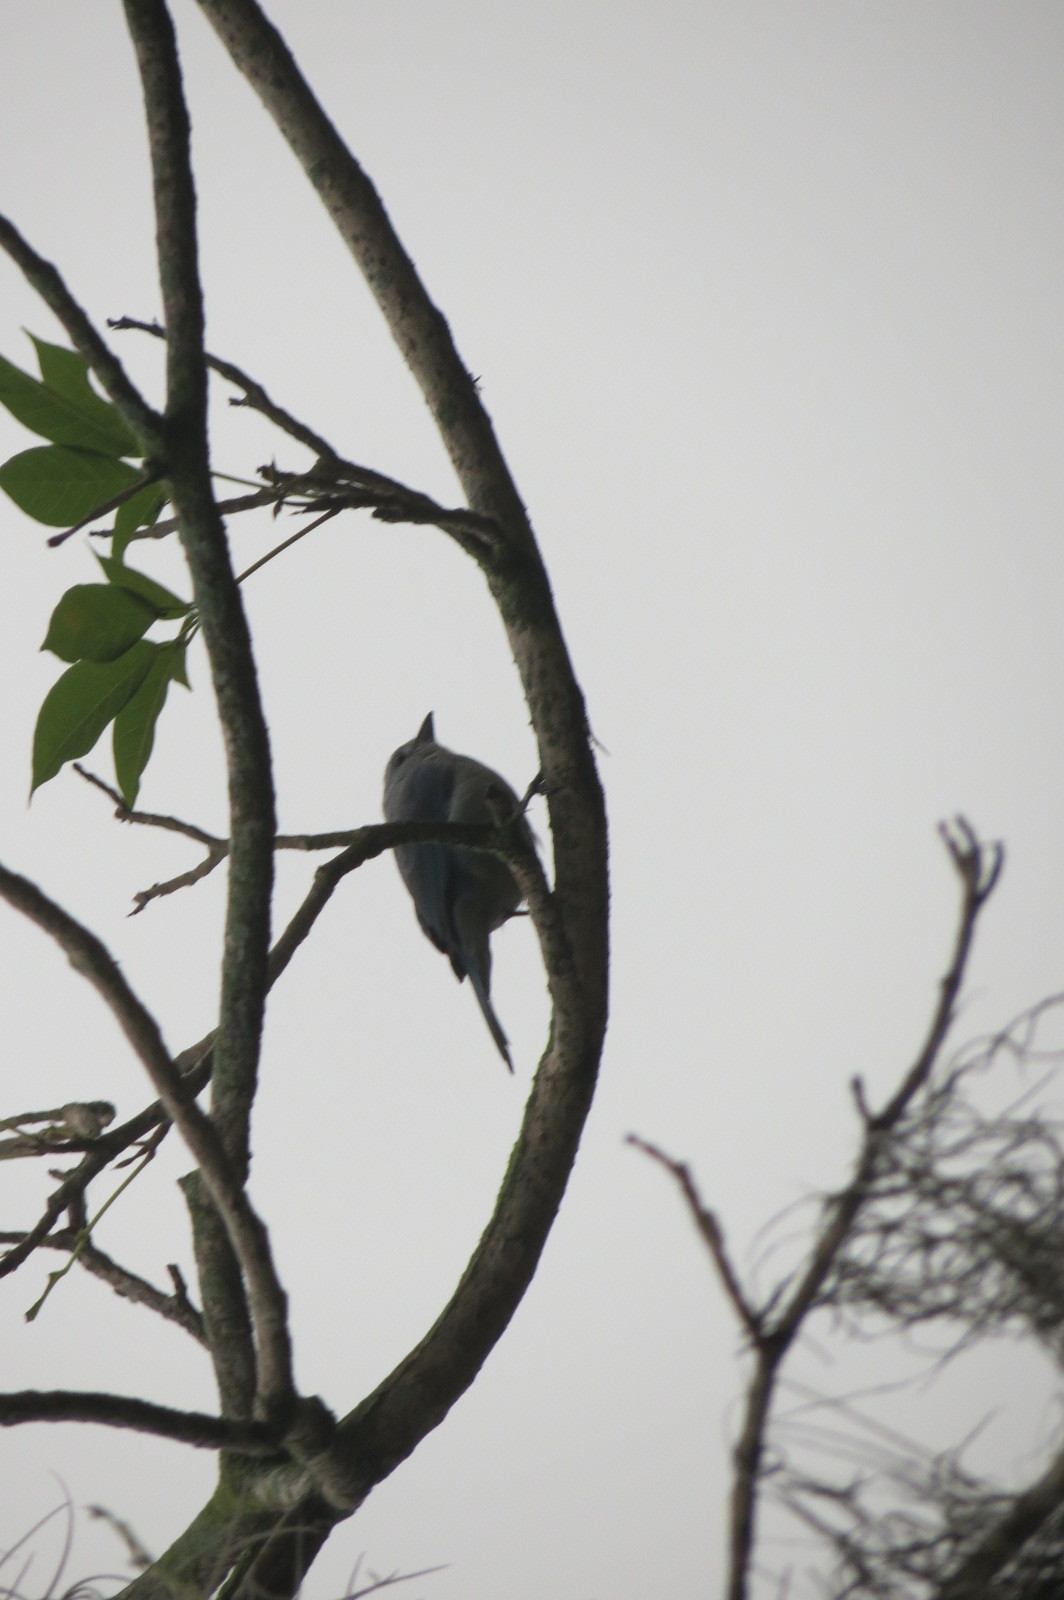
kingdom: Animalia
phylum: Chordata
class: Aves
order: Passeriformes
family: Thraupidae
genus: Thraupis
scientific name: Thraupis episcopus
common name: Blue-grey tanager
